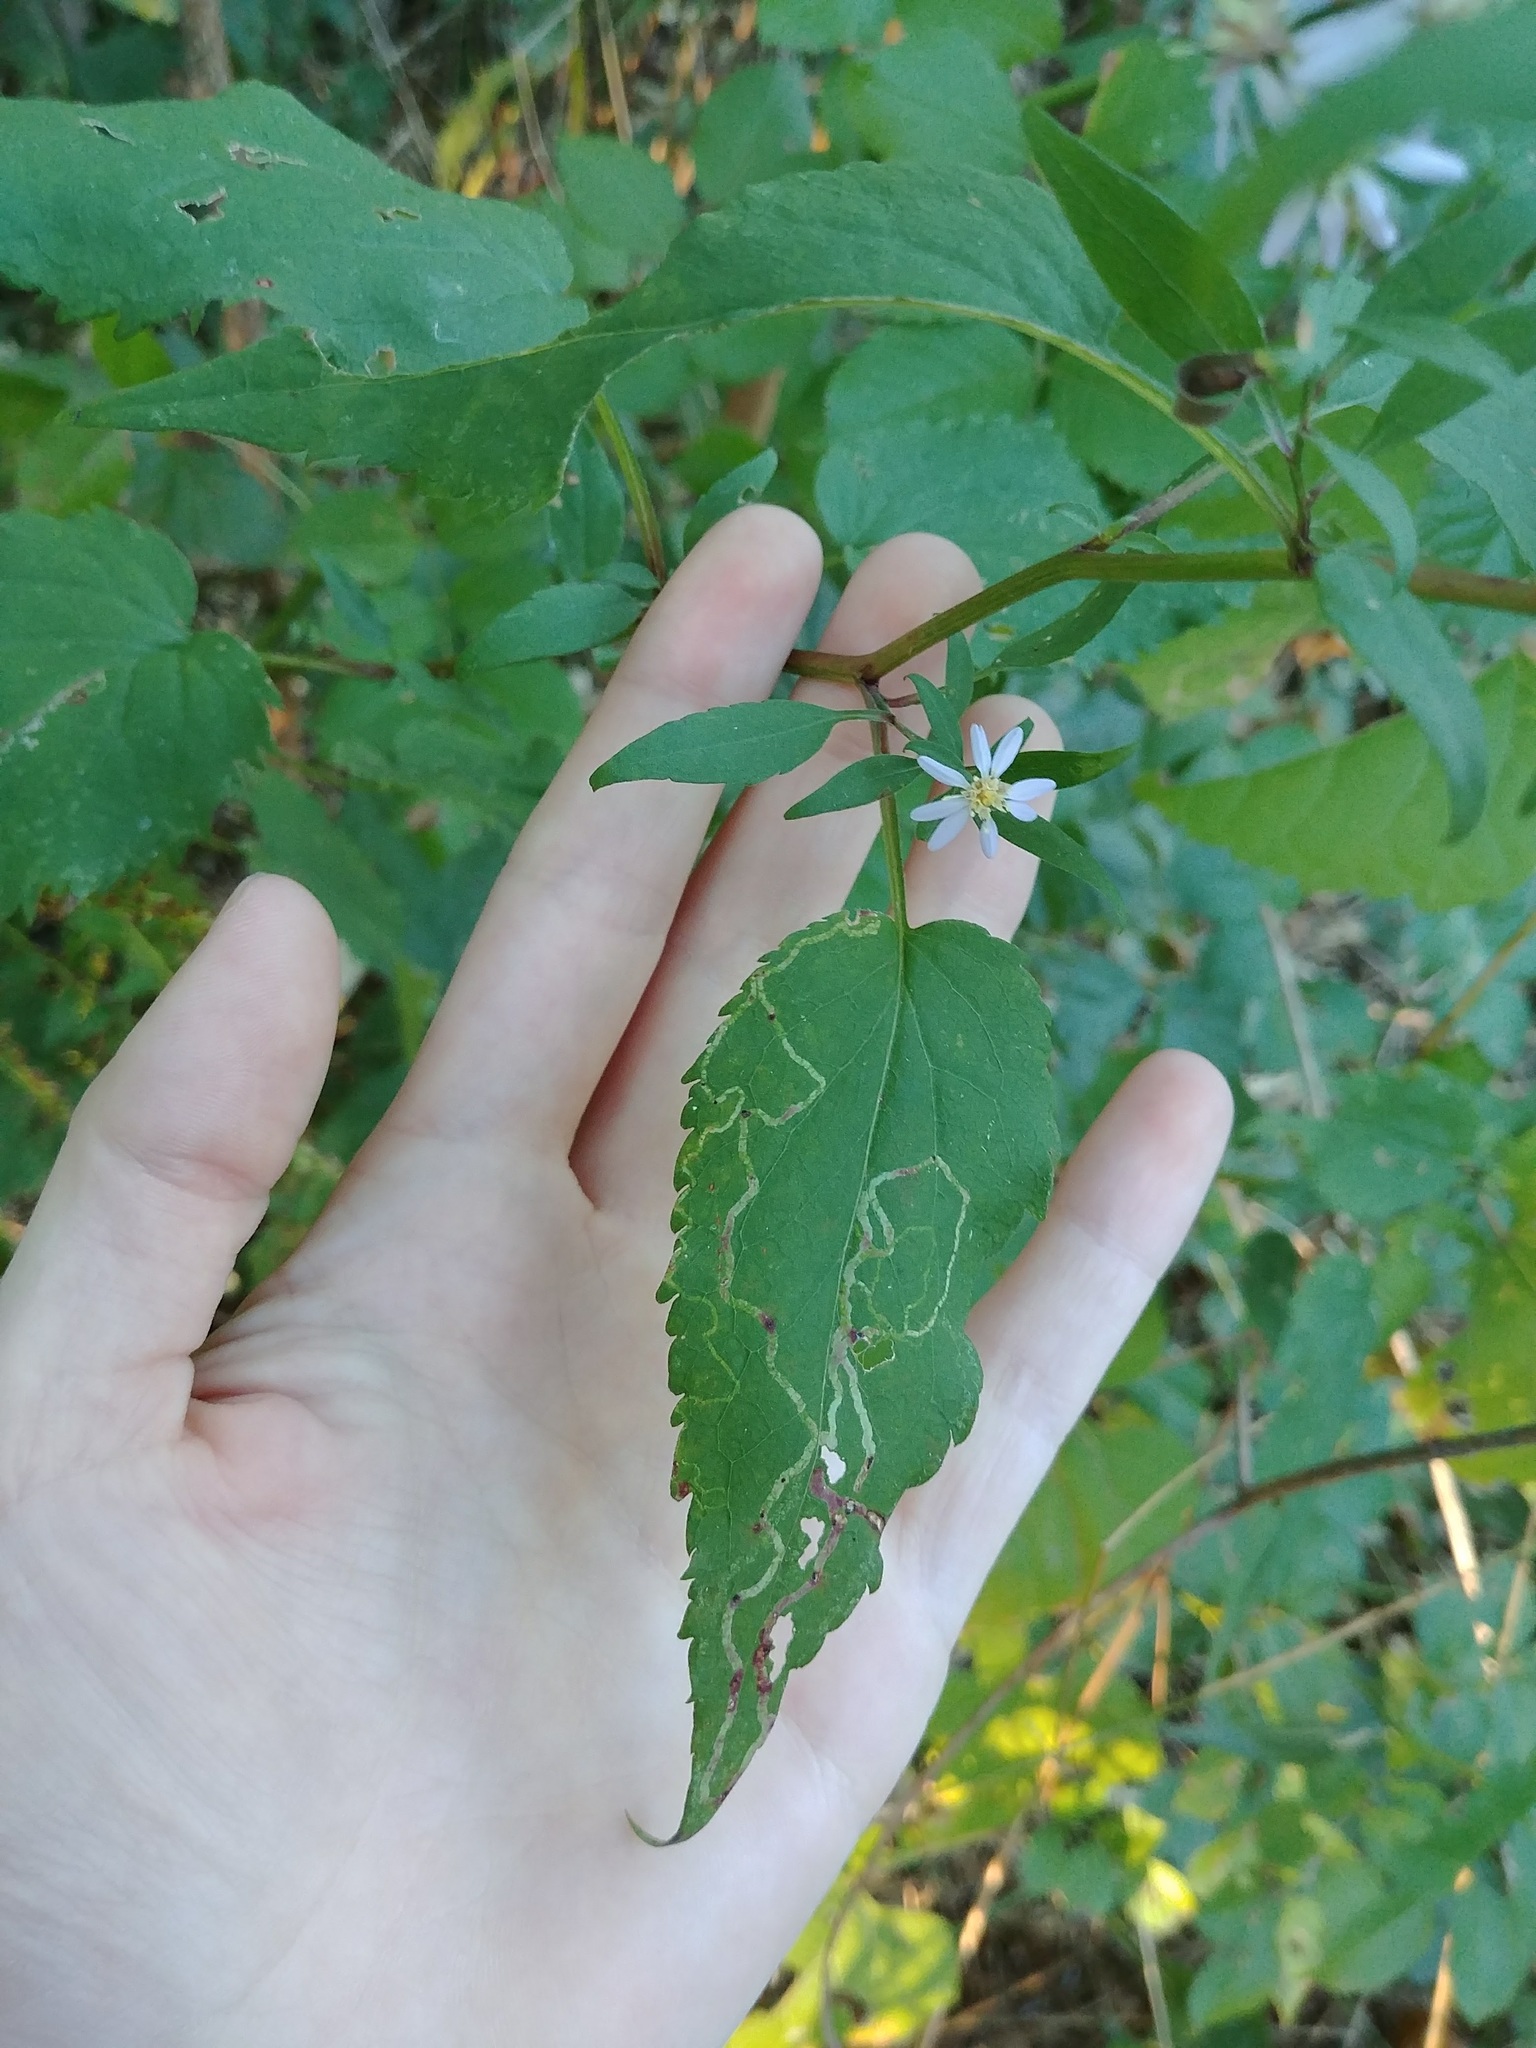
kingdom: Plantae
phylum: Tracheophyta
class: Magnoliopsida
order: Asterales
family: Asteraceae
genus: Symphyotrichum
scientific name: Symphyotrichum cordifolium
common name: Beeweed
